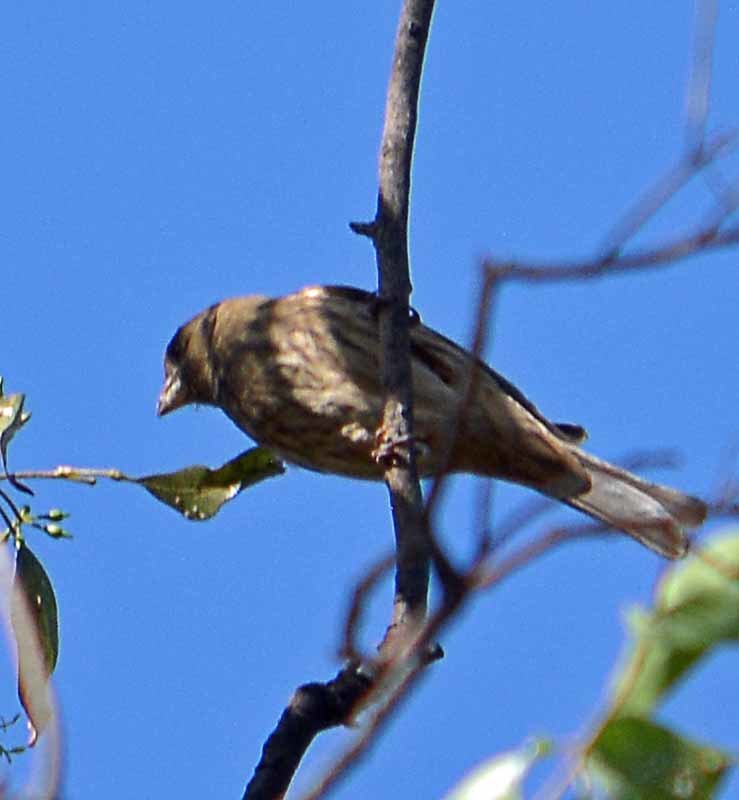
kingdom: Animalia
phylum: Chordata
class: Aves
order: Passeriformes
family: Fringillidae
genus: Haemorhous
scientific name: Haemorhous mexicanus
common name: House finch
